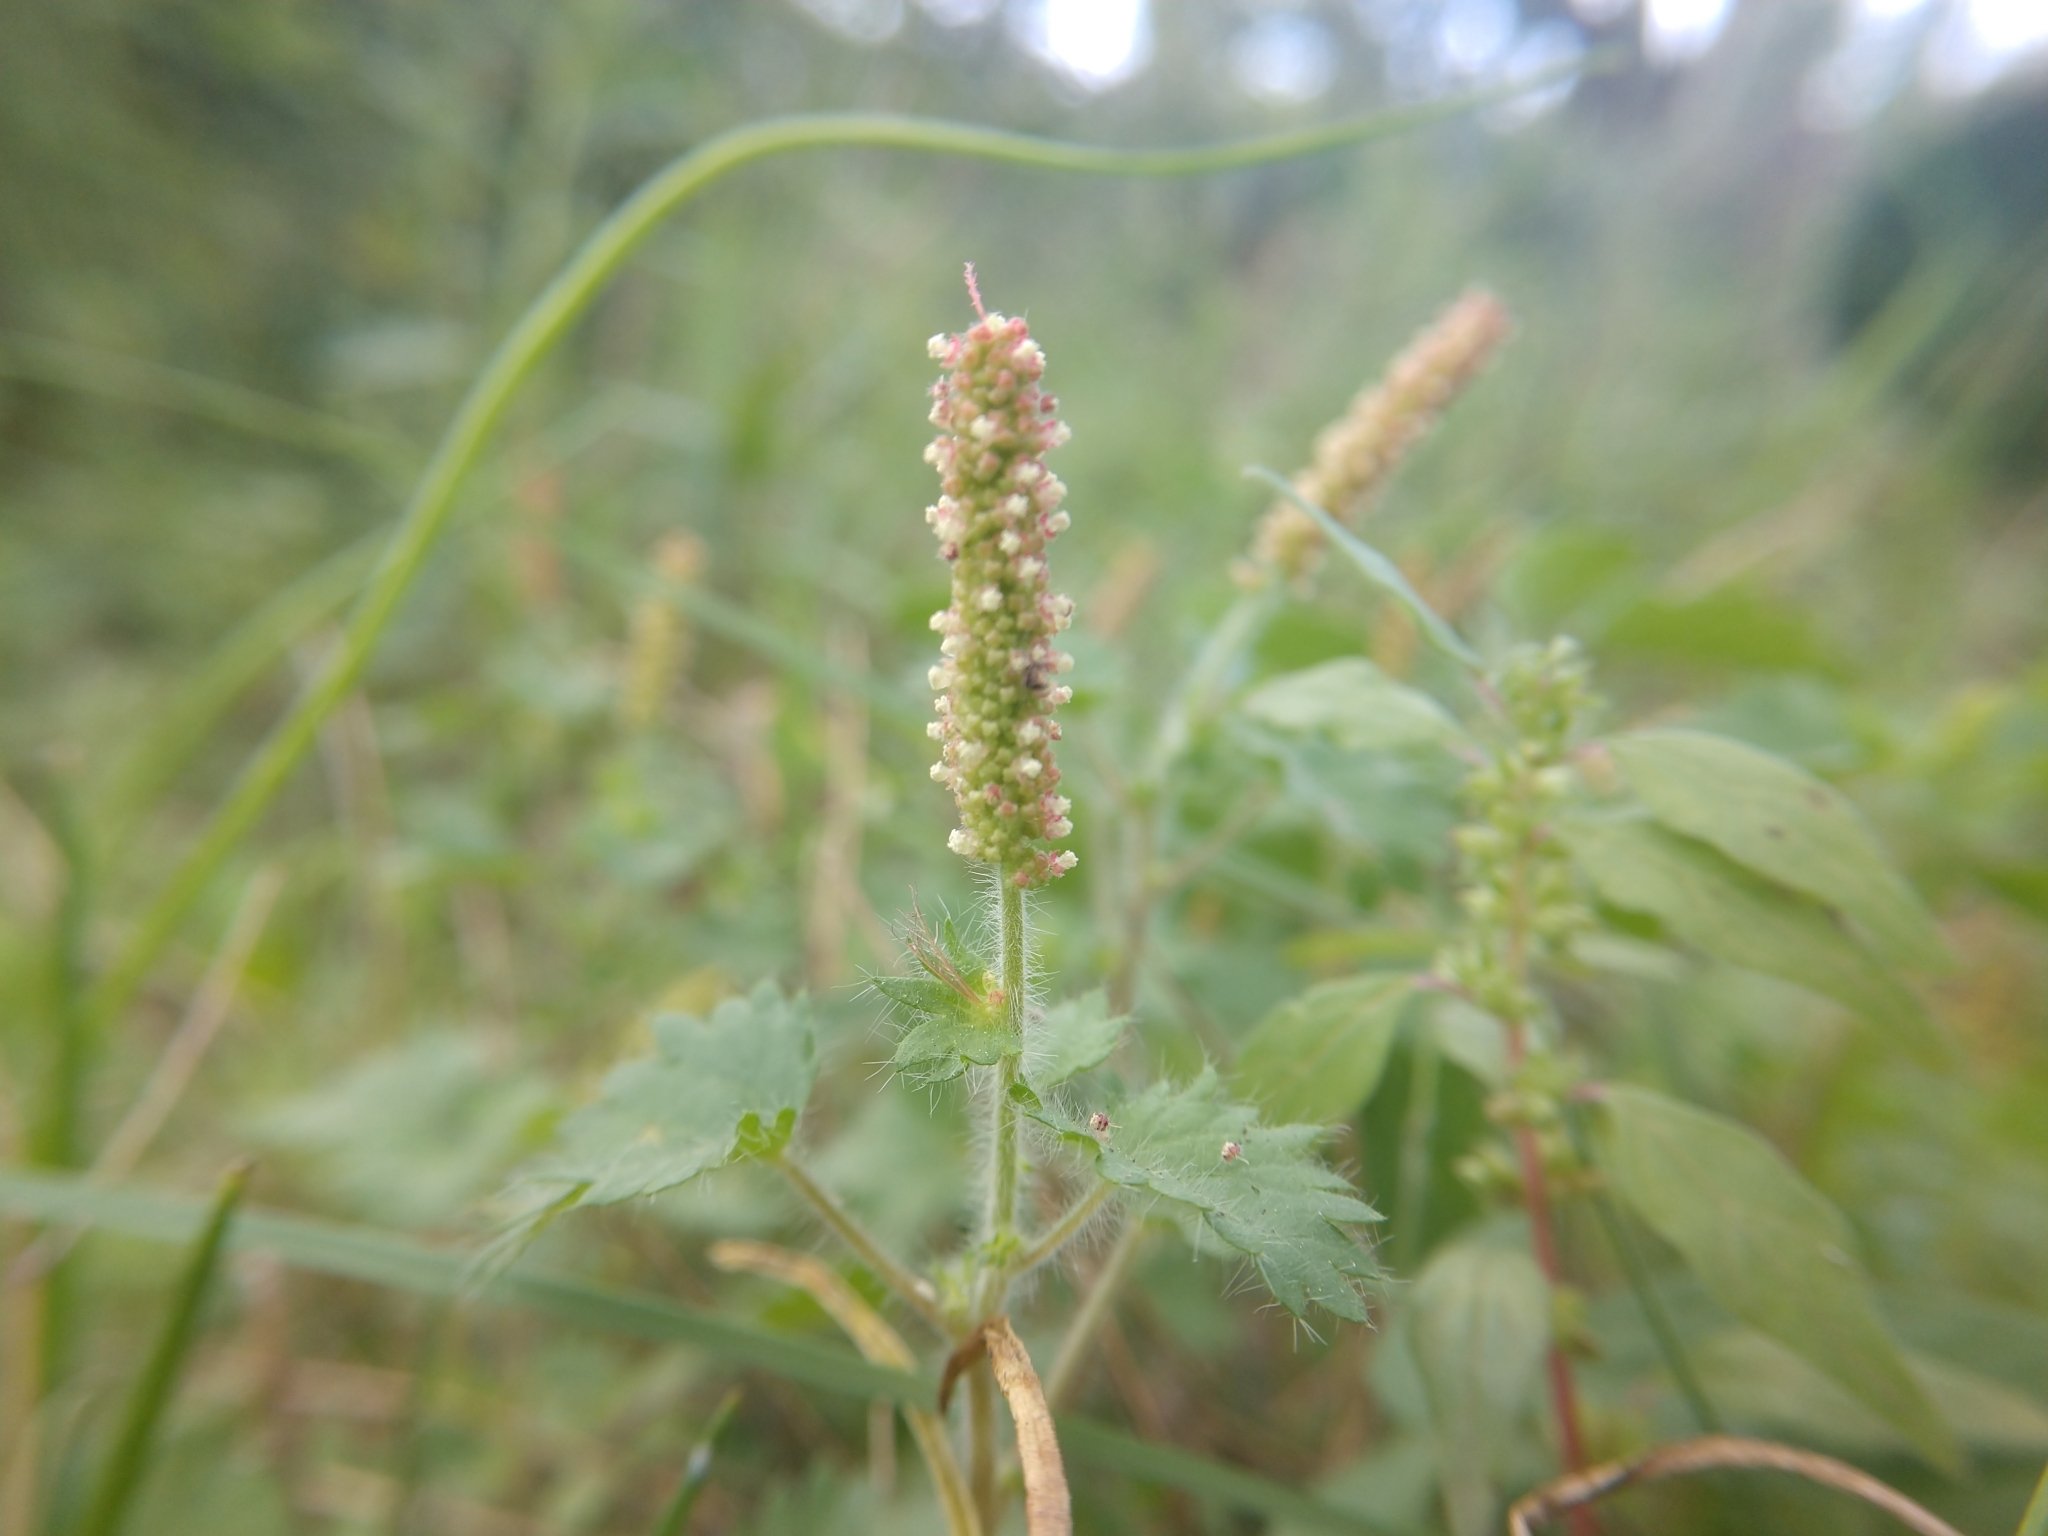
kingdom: Plantae
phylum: Tracheophyta
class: Magnoliopsida
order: Malpighiales
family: Euphorbiaceae
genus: Acalypha
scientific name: Acalypha radians
